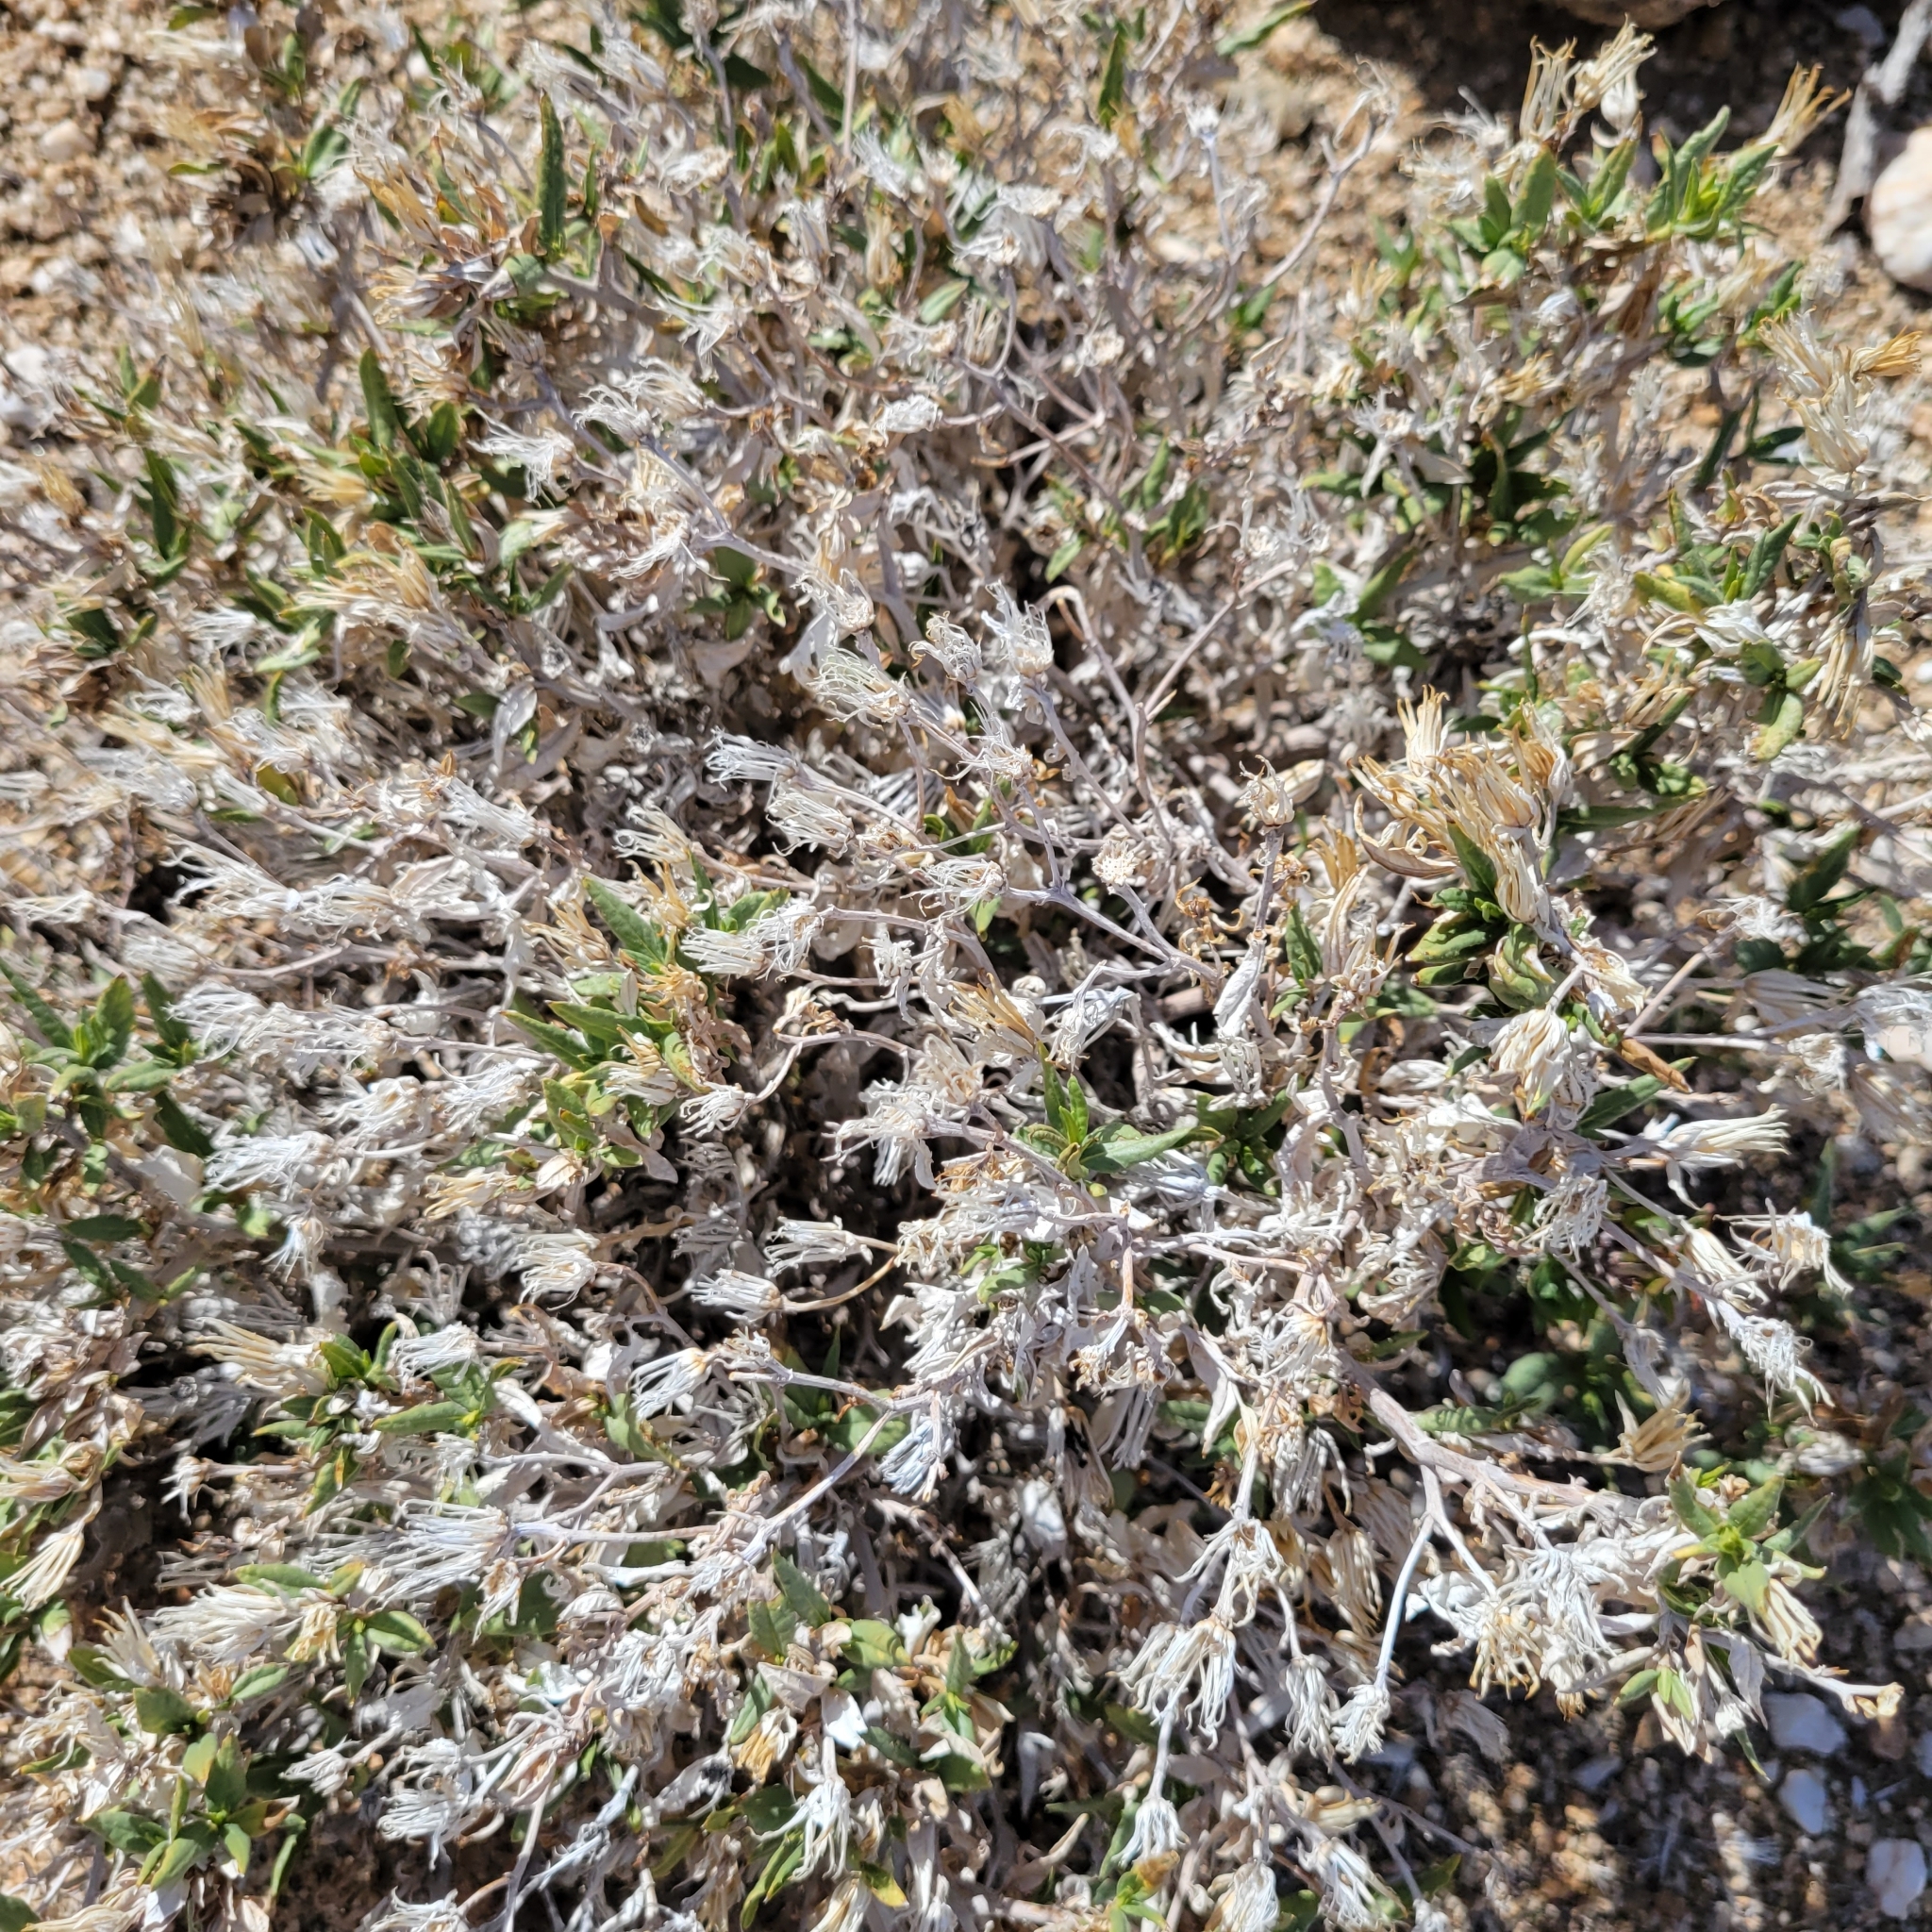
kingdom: Plantae
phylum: Tracheophyta
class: Magnoliopsida
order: Asterales
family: Asteraceae
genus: Trixis
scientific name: Trixis californica
